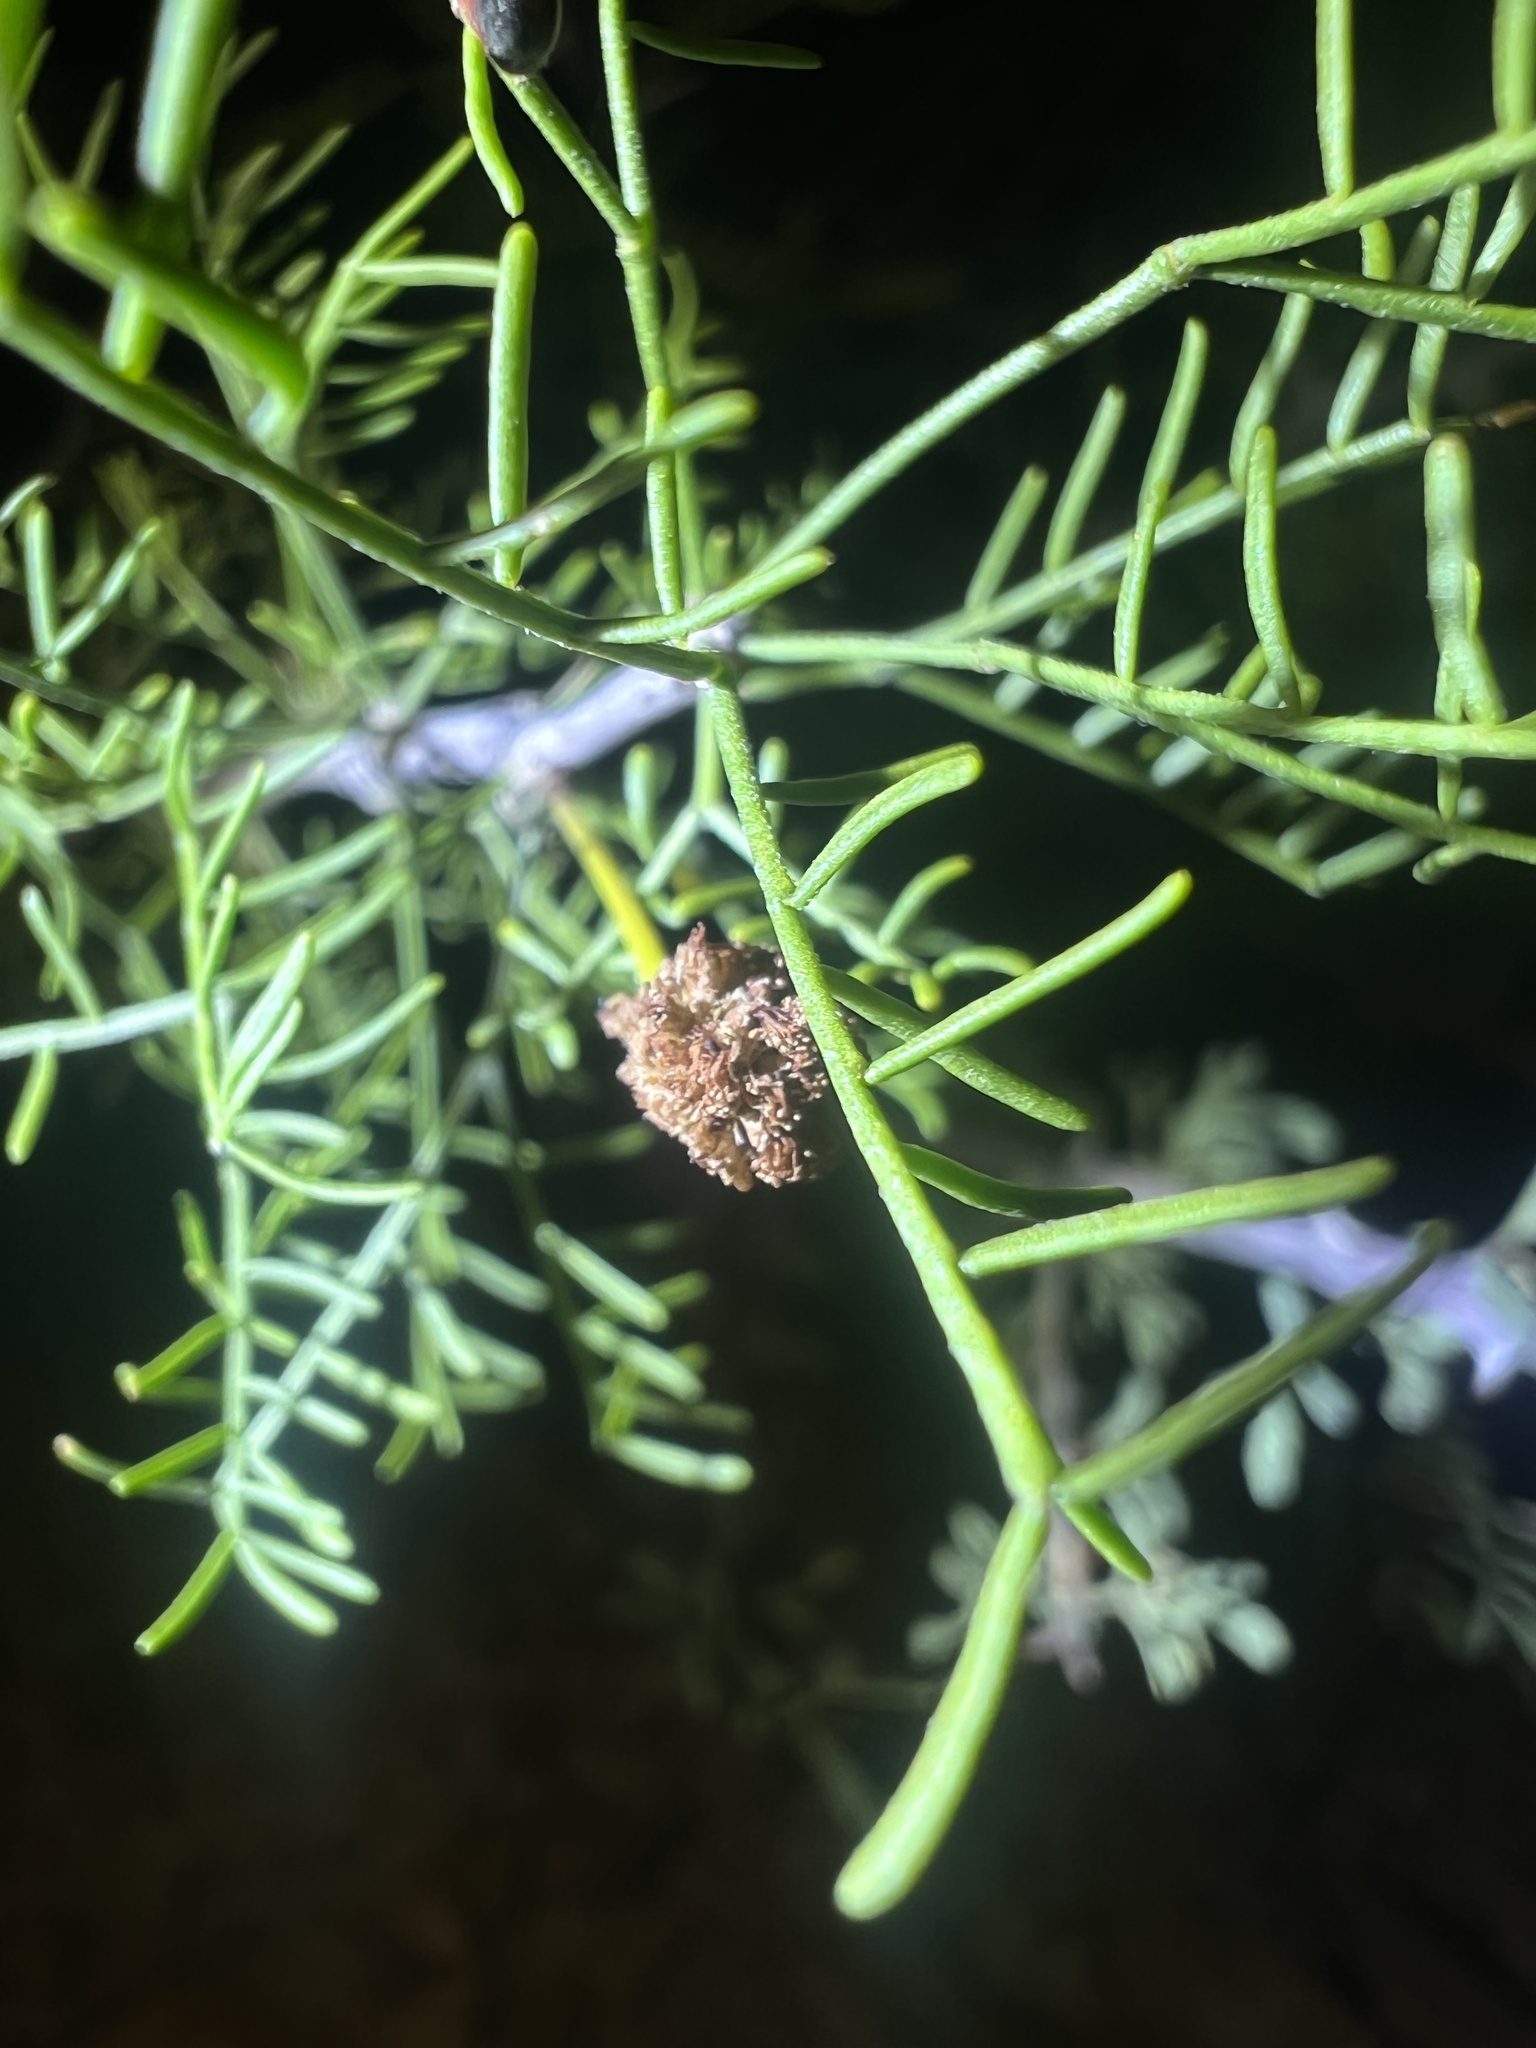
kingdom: Plantae
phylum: Tracheophyta
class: Magnoliopsida
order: Fabales
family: Fabaceae
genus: Vachellia
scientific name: Vachellia schottii
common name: Schott acacia
